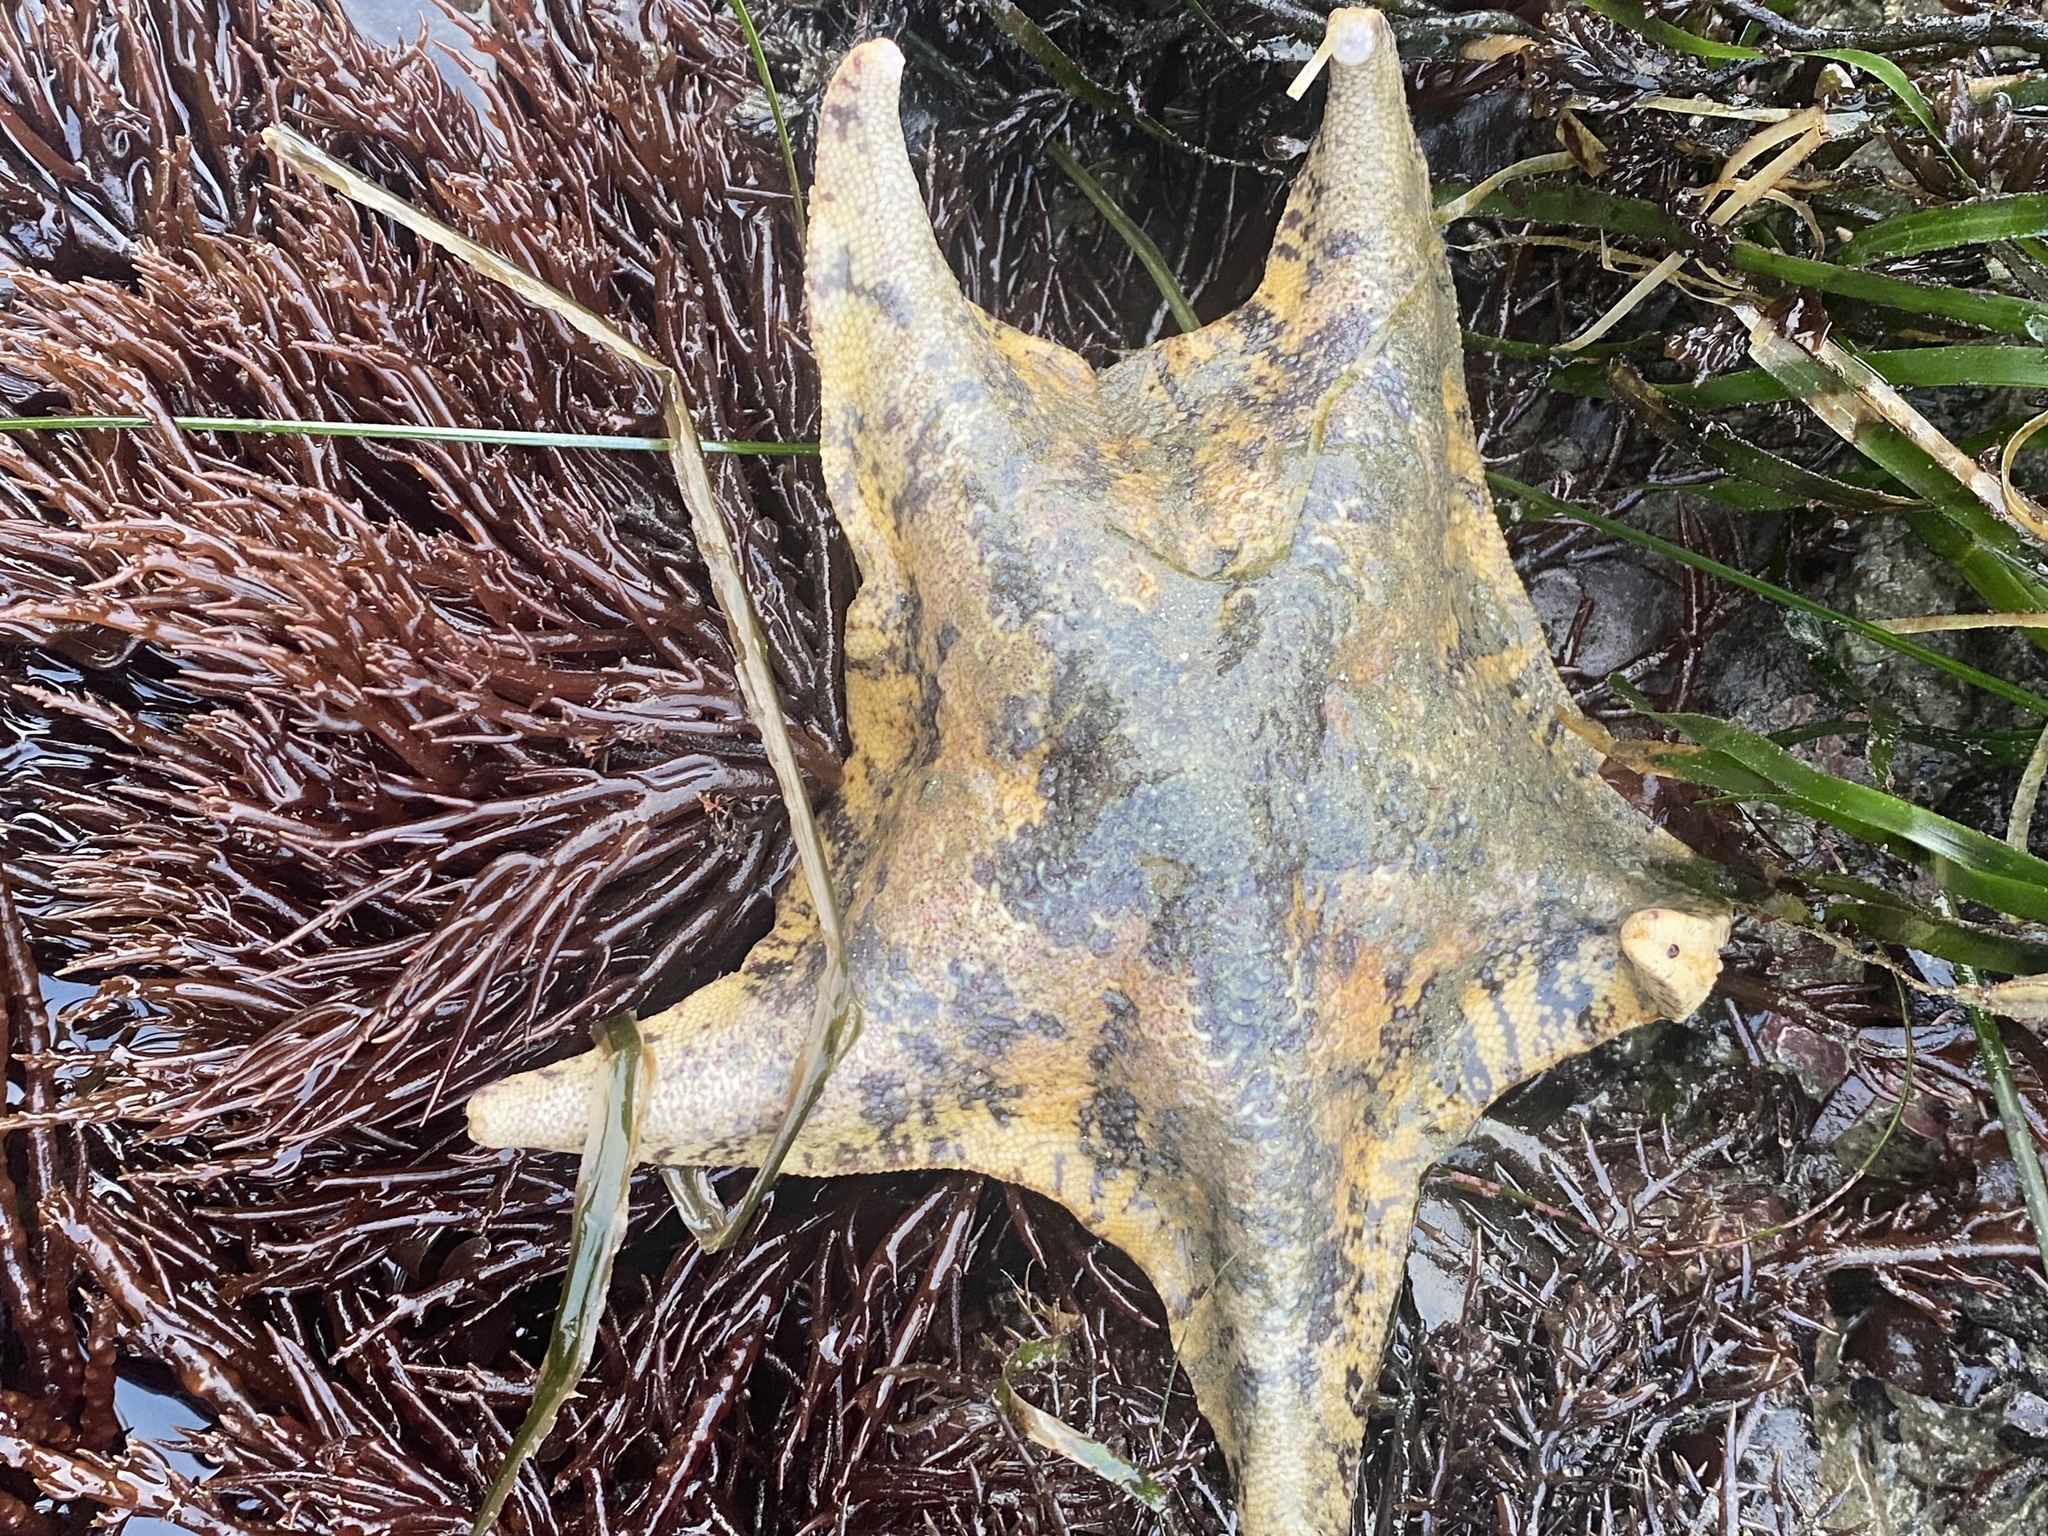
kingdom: Animalia
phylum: Echinodermata
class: Asteroidea
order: Valvatida
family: Asterinidae
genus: Patiria
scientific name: Patiria miniata
